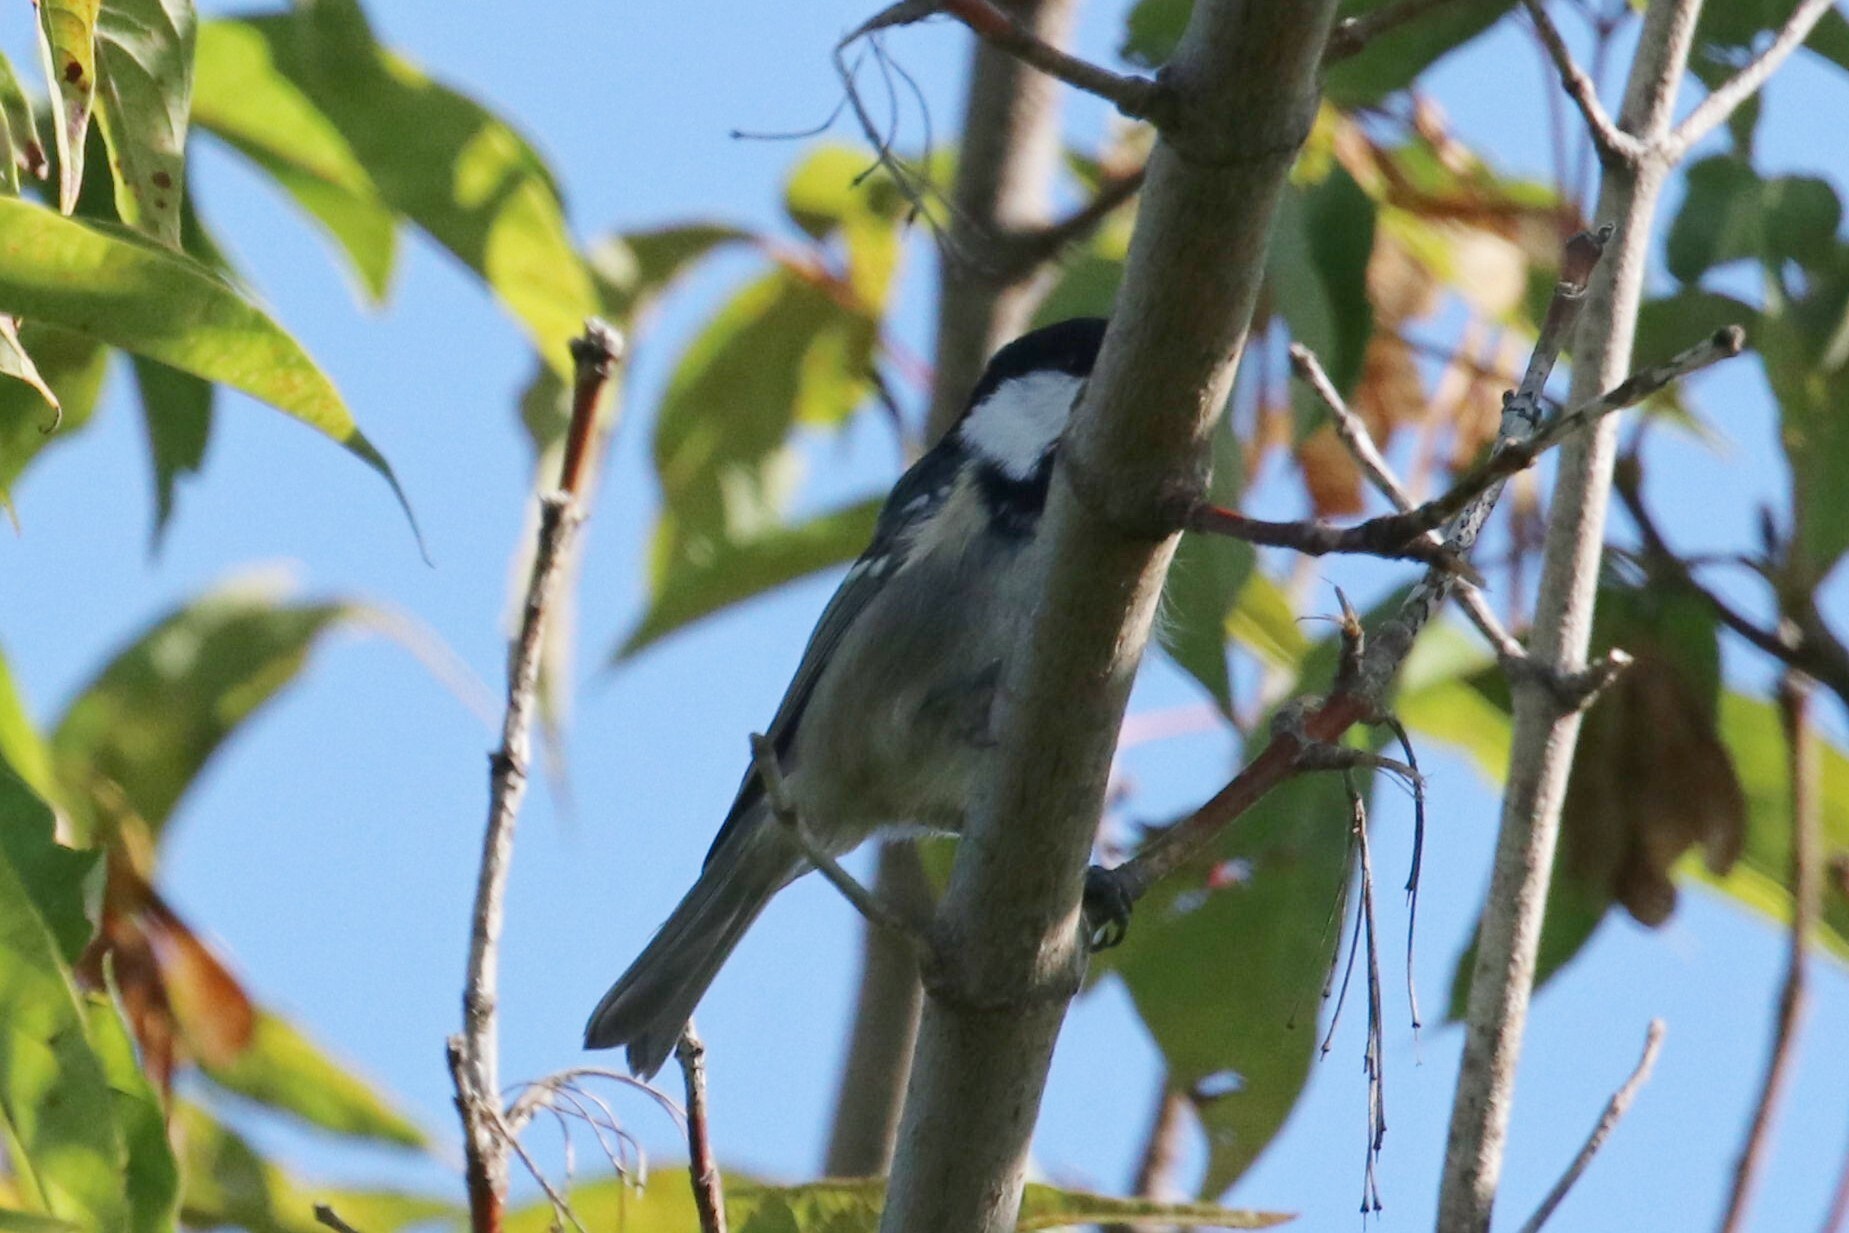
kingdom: Animalia
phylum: Chordata
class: Aves
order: Passeriformes
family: Paridae
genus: Periparus
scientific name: Periparus ater
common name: Coal tit
